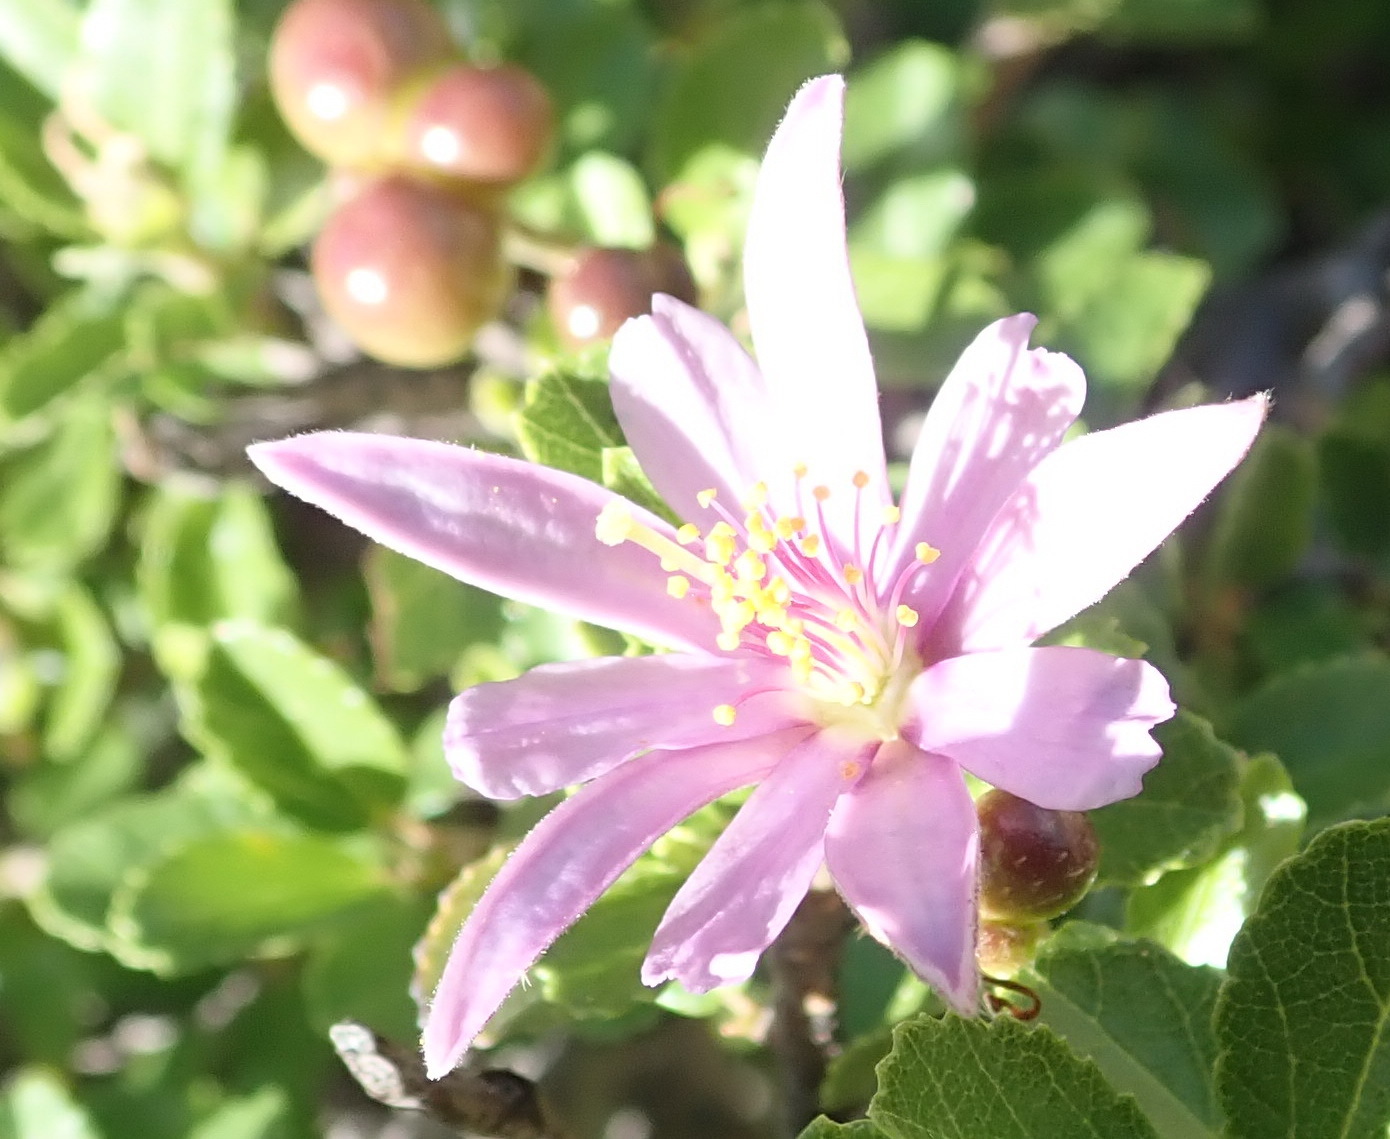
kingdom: Plantae
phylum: Tracheophyta
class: Magnoliopsida
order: Malvales
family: Malvaceae
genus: Grewia
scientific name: Grewia robusta
